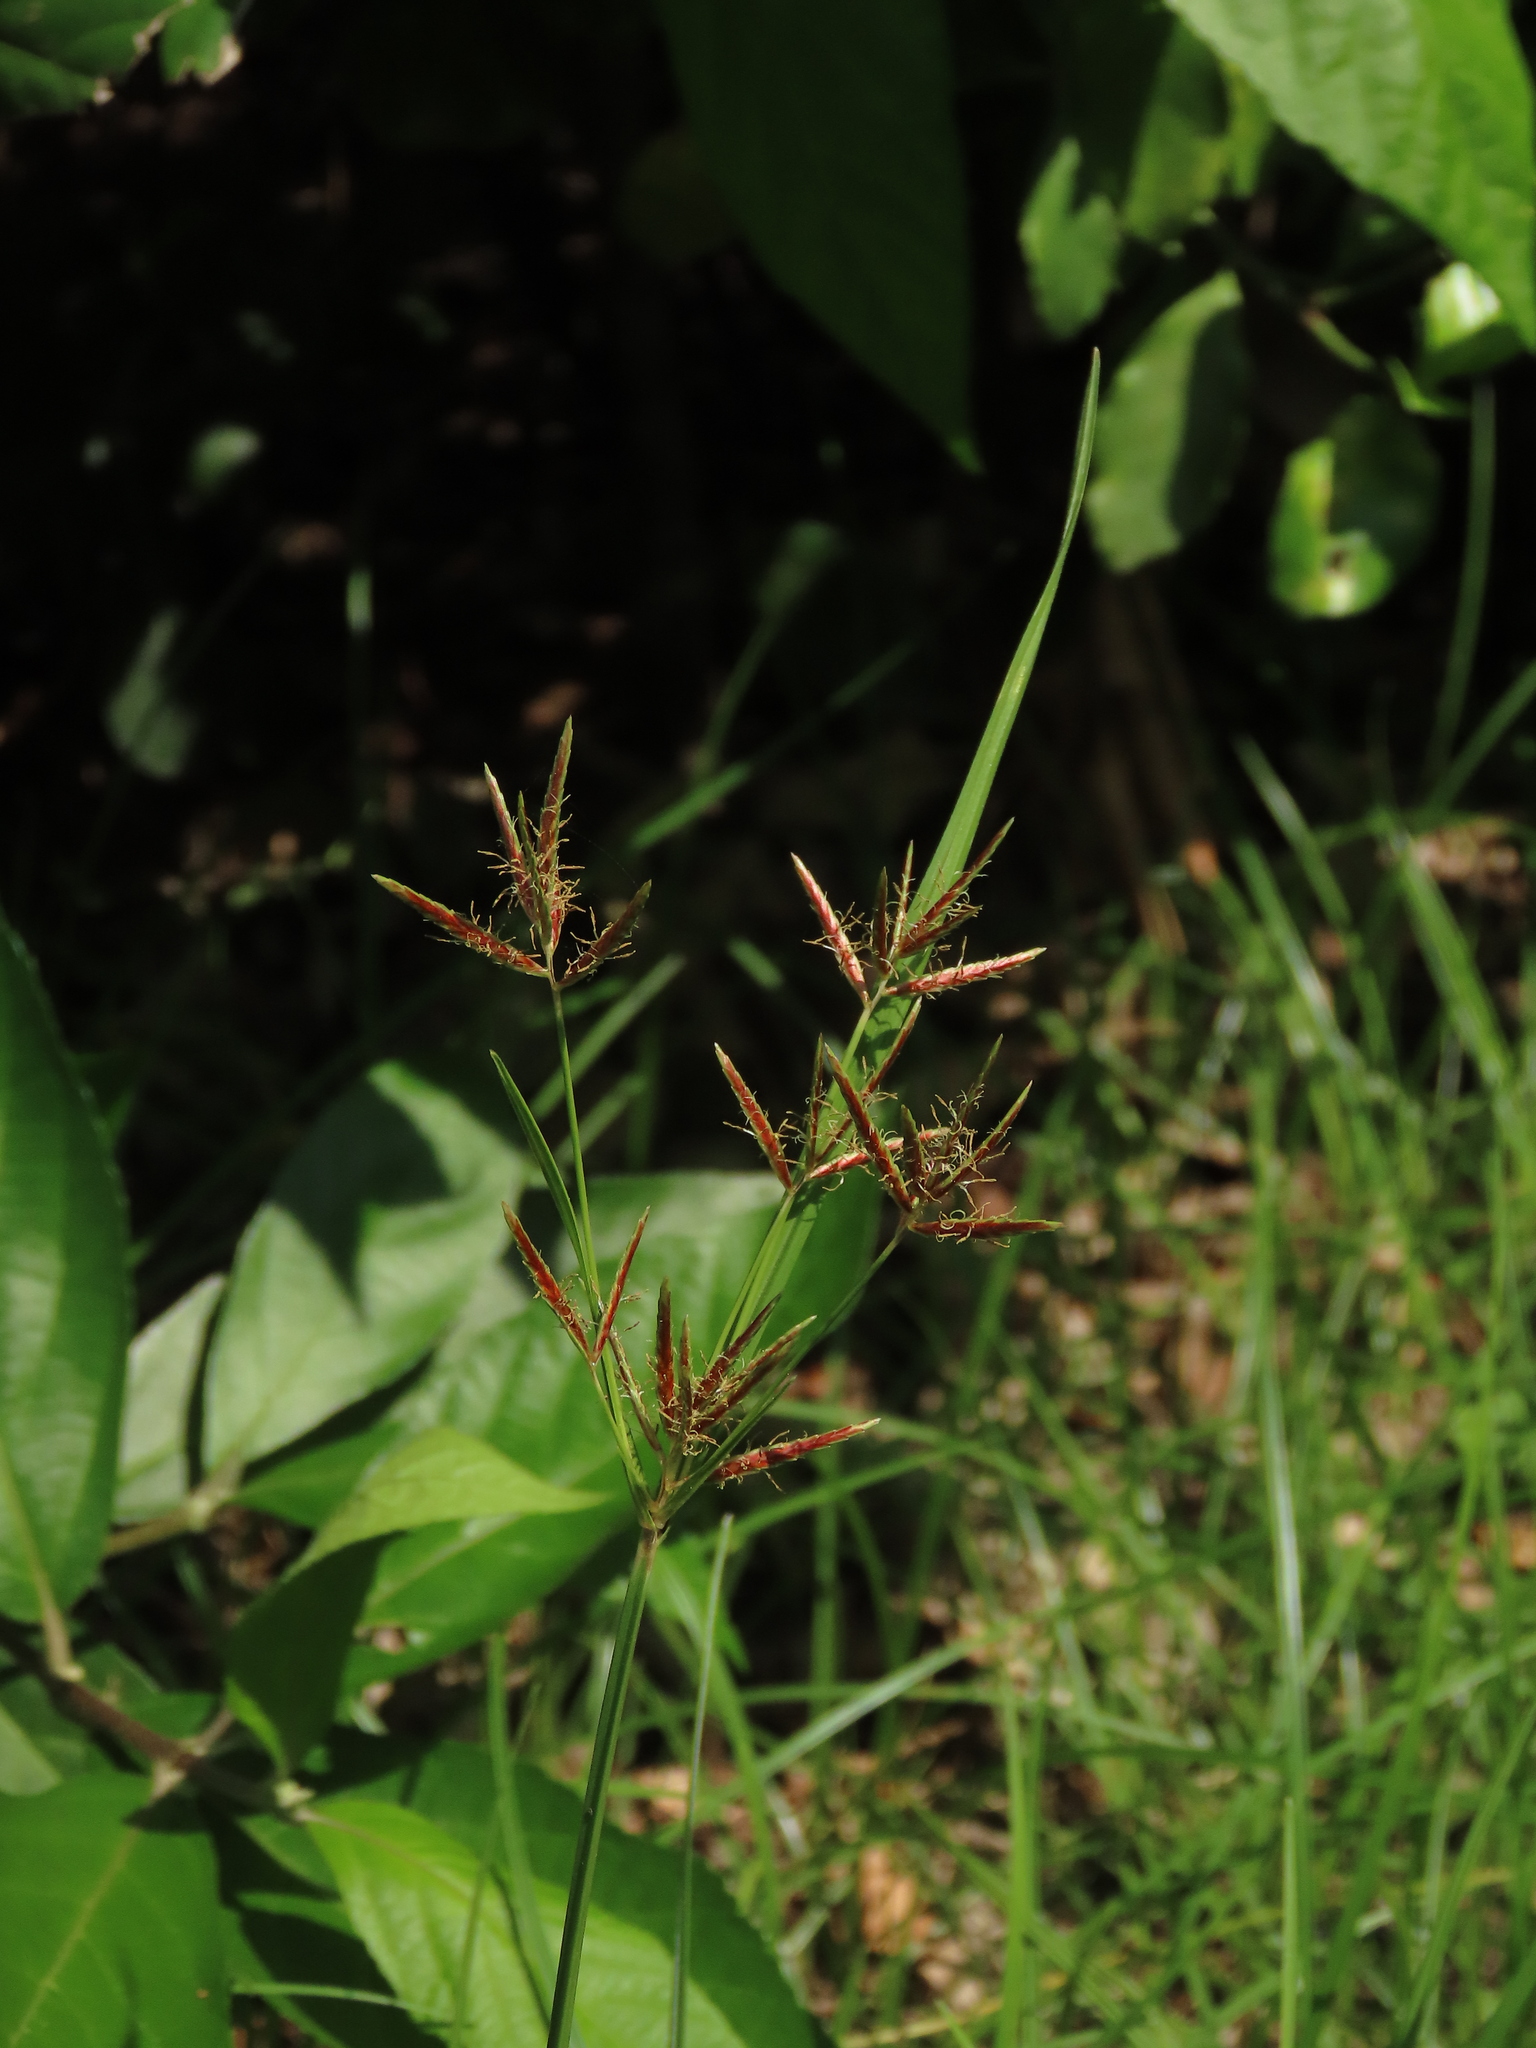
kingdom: Plantae
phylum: Tracheophyta
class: Liliopsida
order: Poales
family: Cyperaceae
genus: Cyperus
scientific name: Cyperus rotundus
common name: Nutgrass
